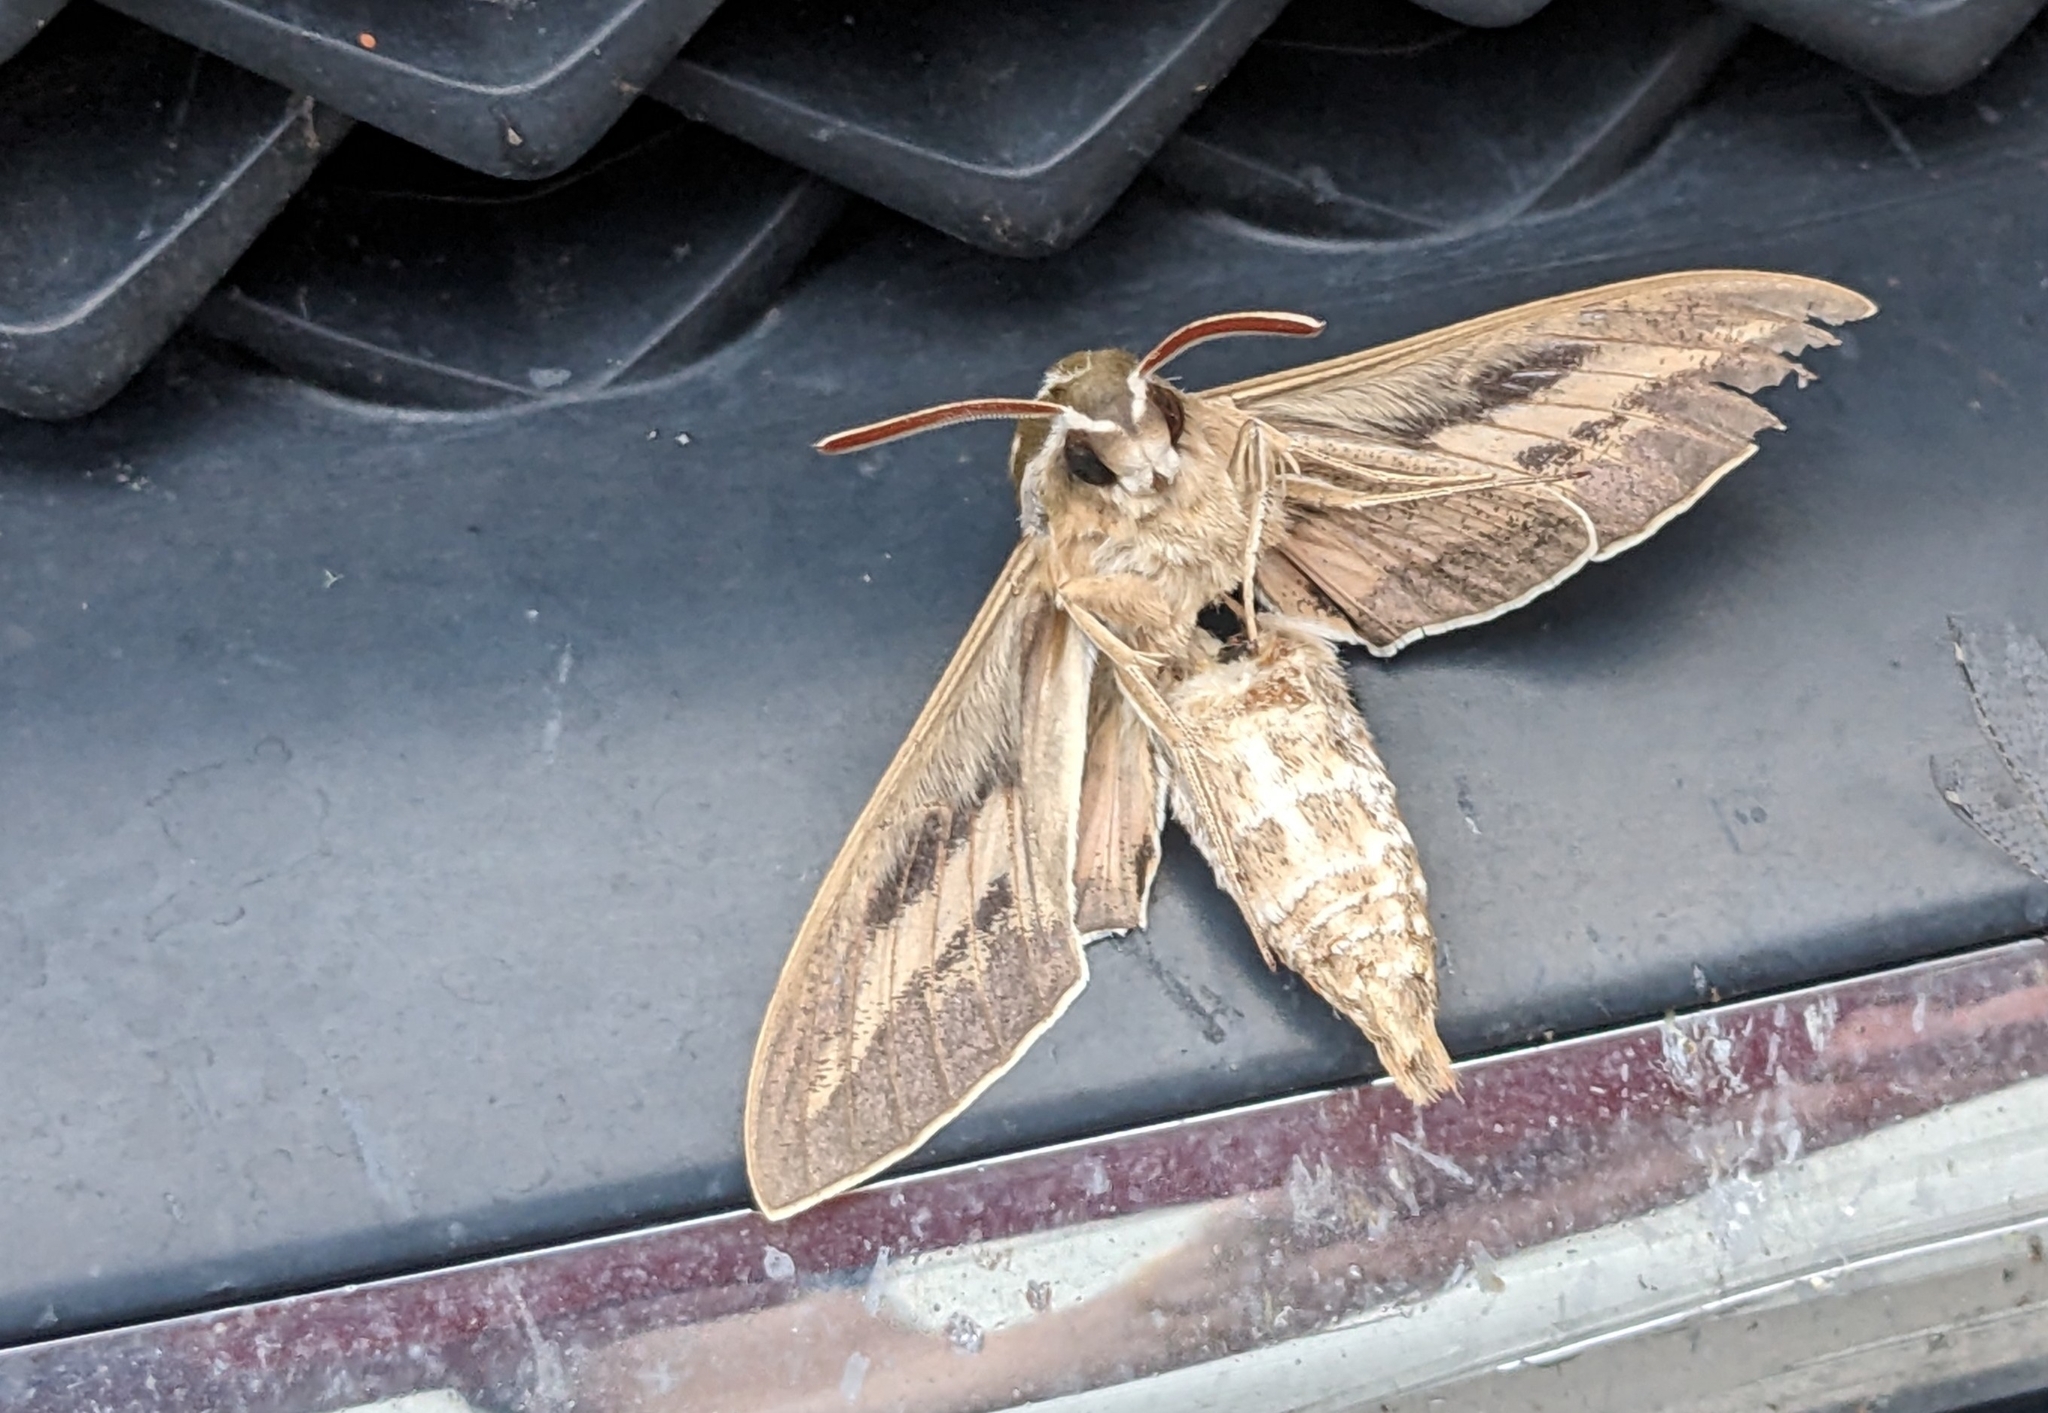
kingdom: Animalia
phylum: Arthropoda
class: Insecta
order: Lepidoptera
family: Sphingidae
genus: Hyles
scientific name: Hyles lineata
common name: White-lined sphinx
